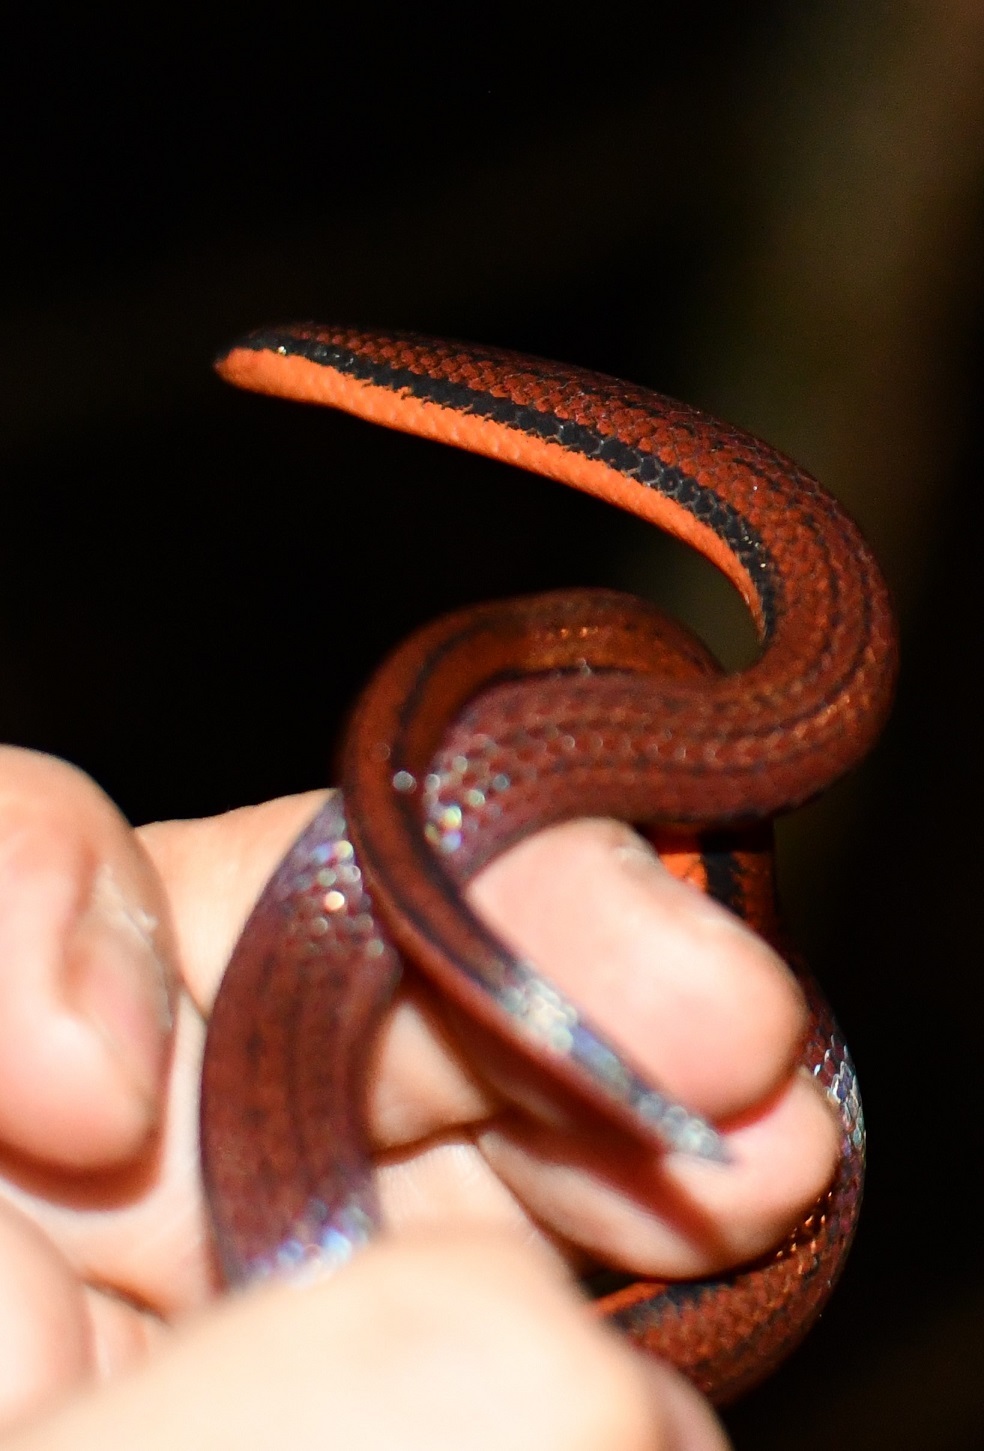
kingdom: Animalia
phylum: Chordata
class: Squamata
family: Colubridae
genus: Adelphicos
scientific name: Adelphicos nigrilatum
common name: Burrowing snake
